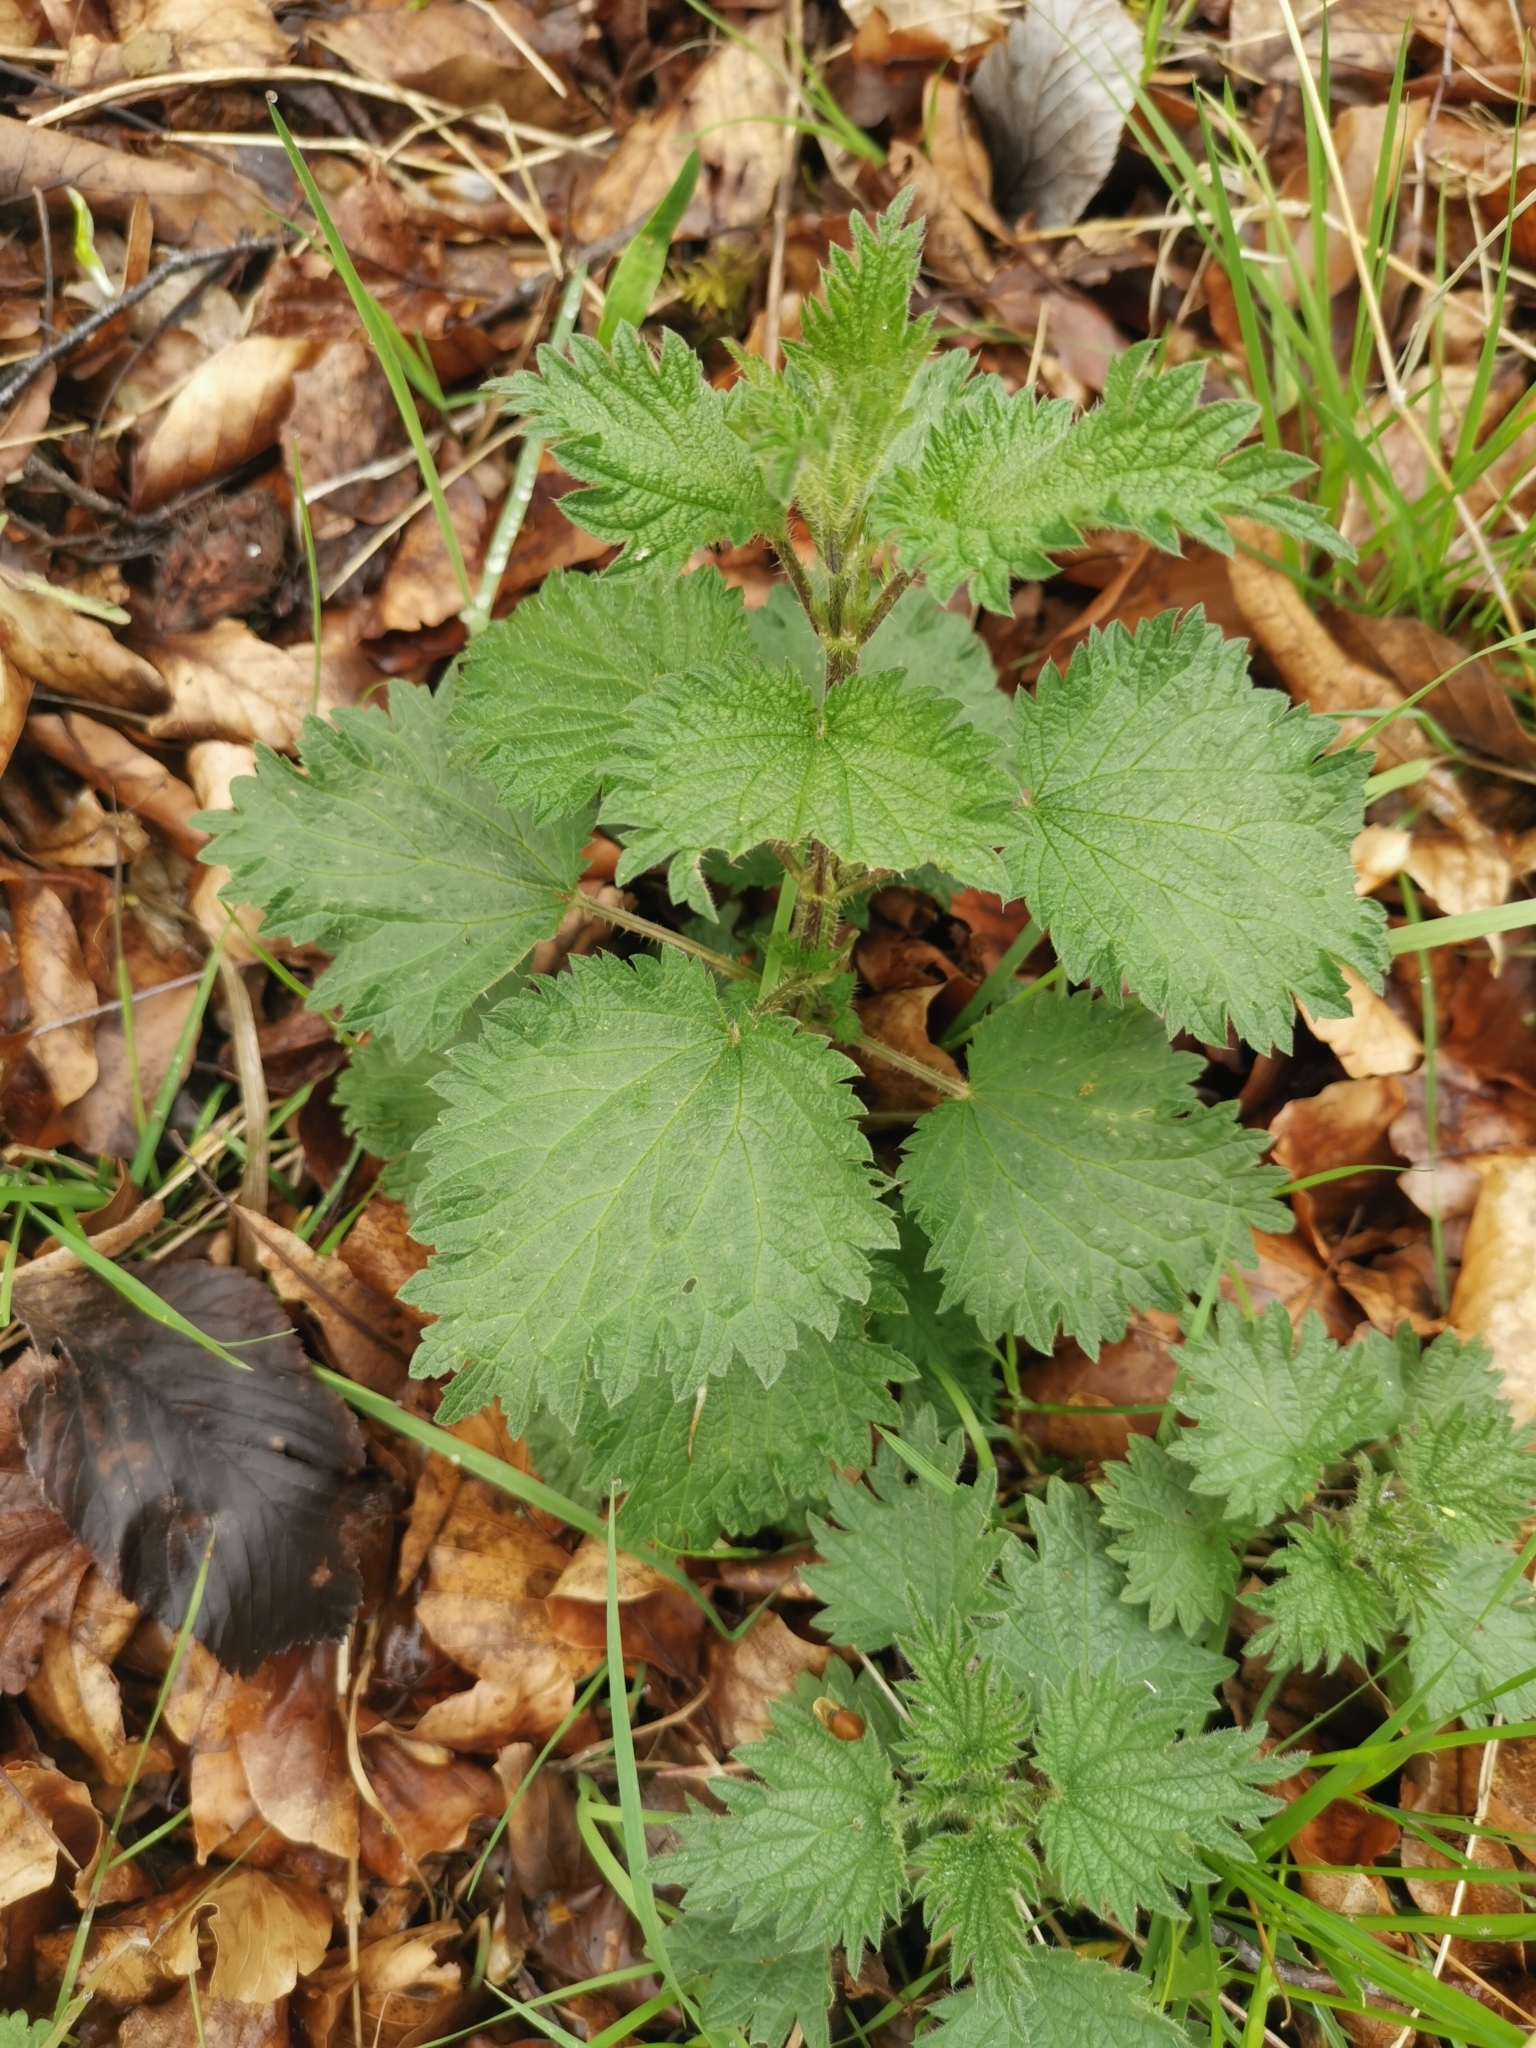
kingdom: Plantae
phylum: Tracheophyta
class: Magnoliopsida
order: Rosales
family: Urticaceae
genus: Urtica
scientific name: Urtica dioica
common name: Common nettle
